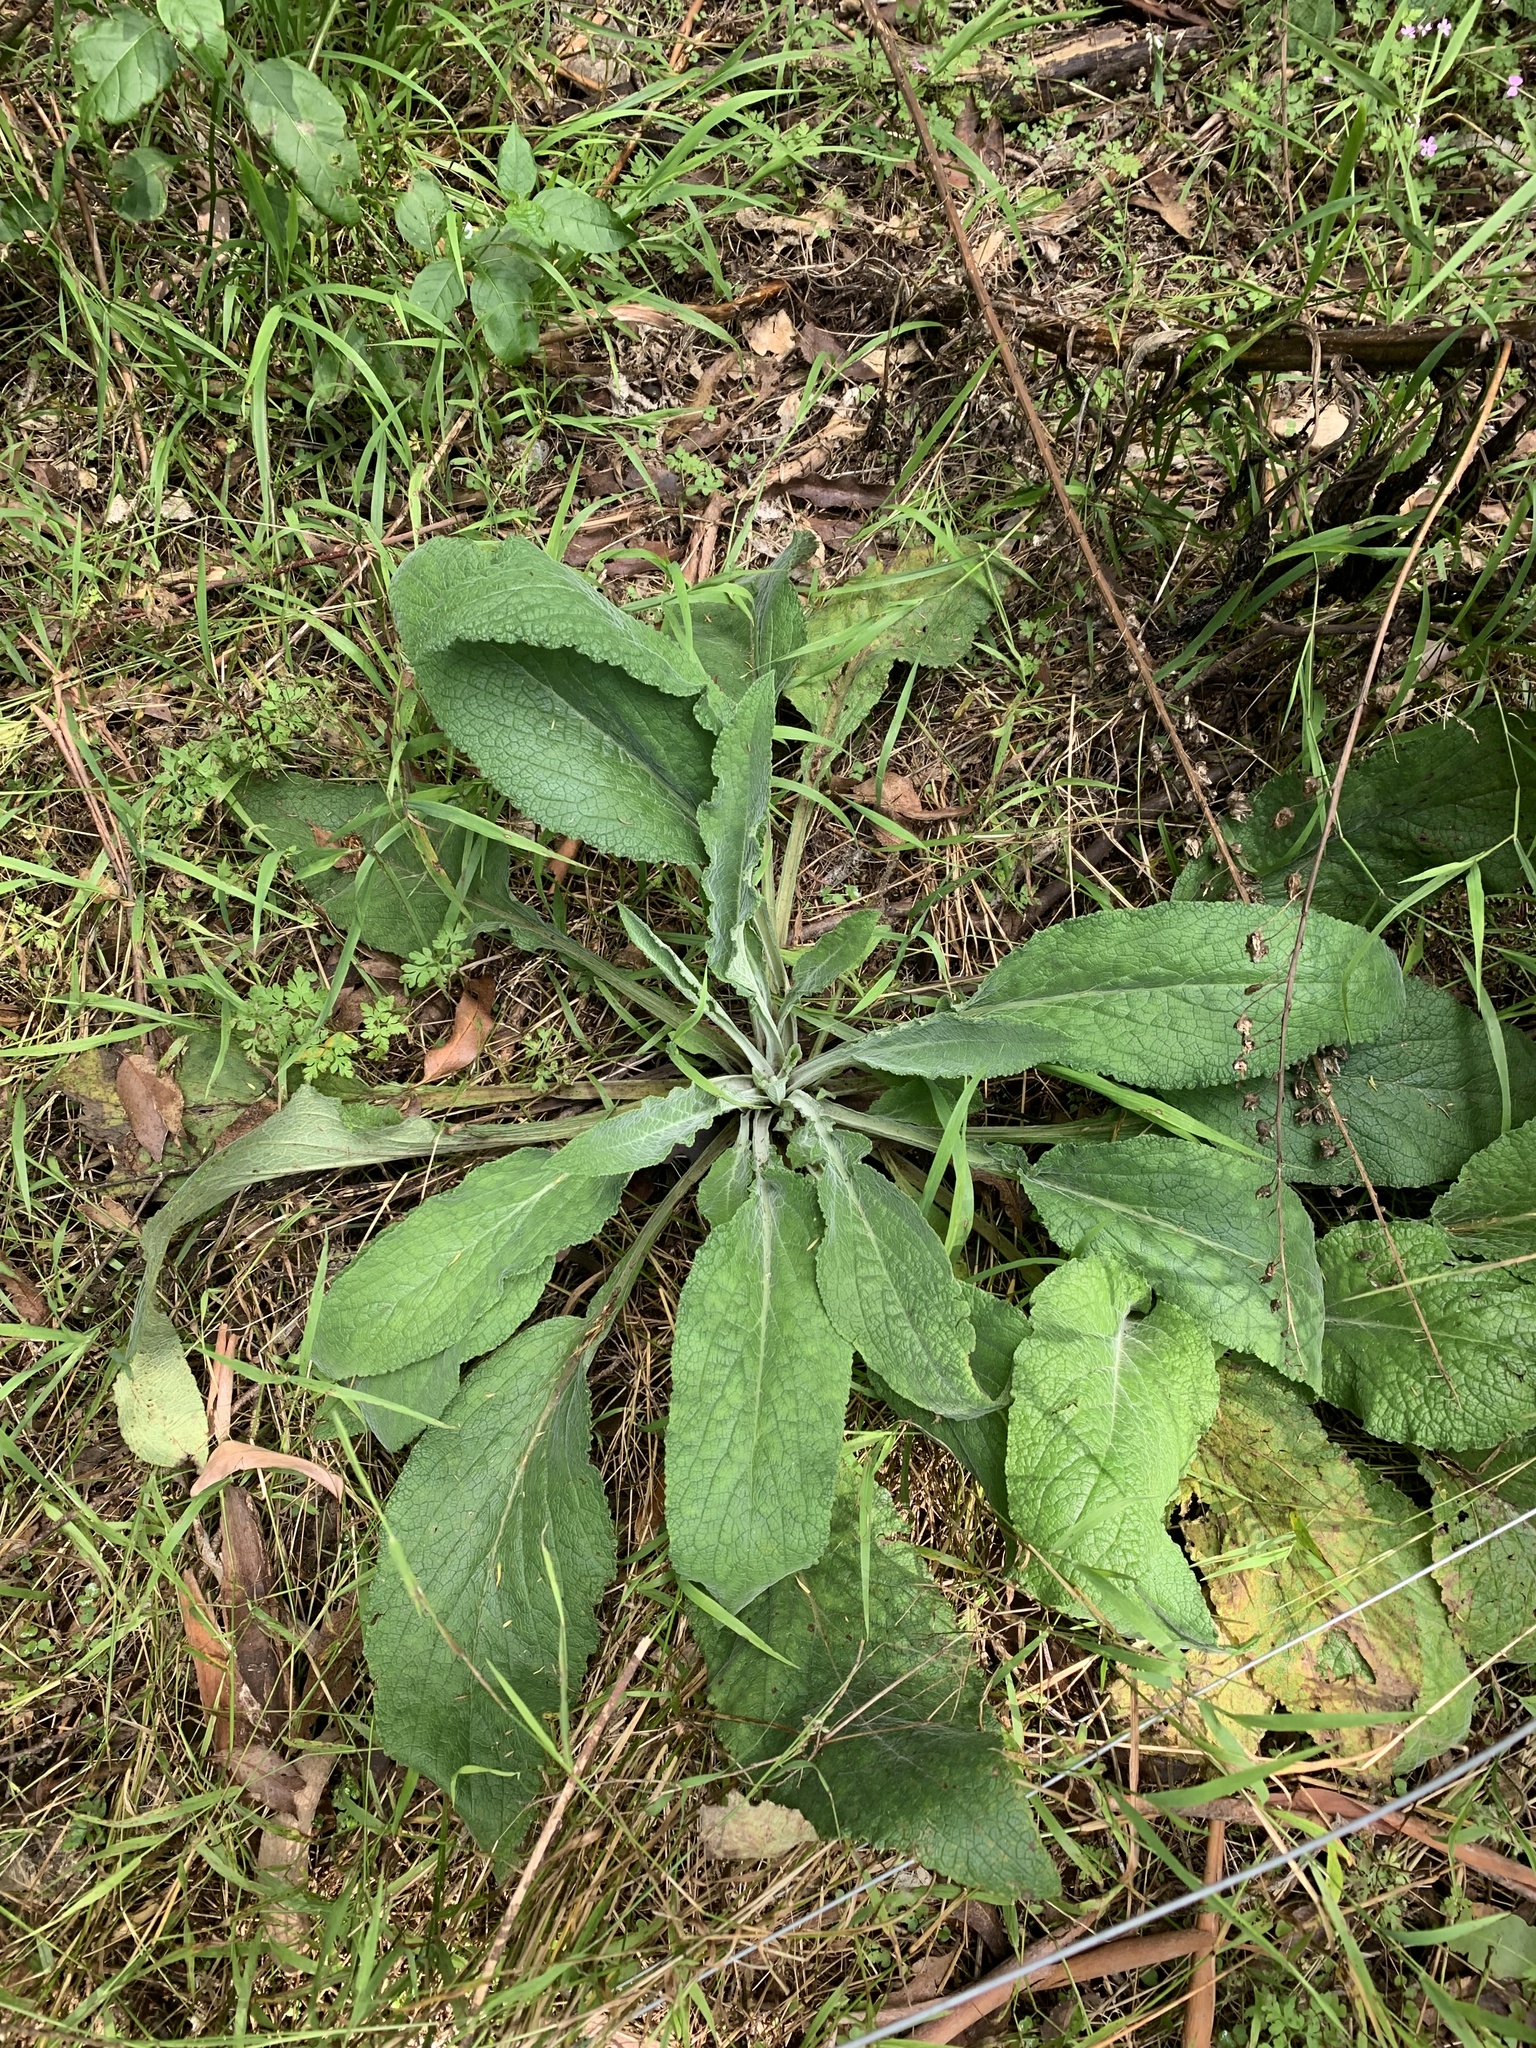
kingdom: Plantae
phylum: Tracheophyta
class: Magnoliopsida
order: Lamiales
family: Plantaginaceae
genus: Digitalis
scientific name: Digitalis purpurea
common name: Foxglove
